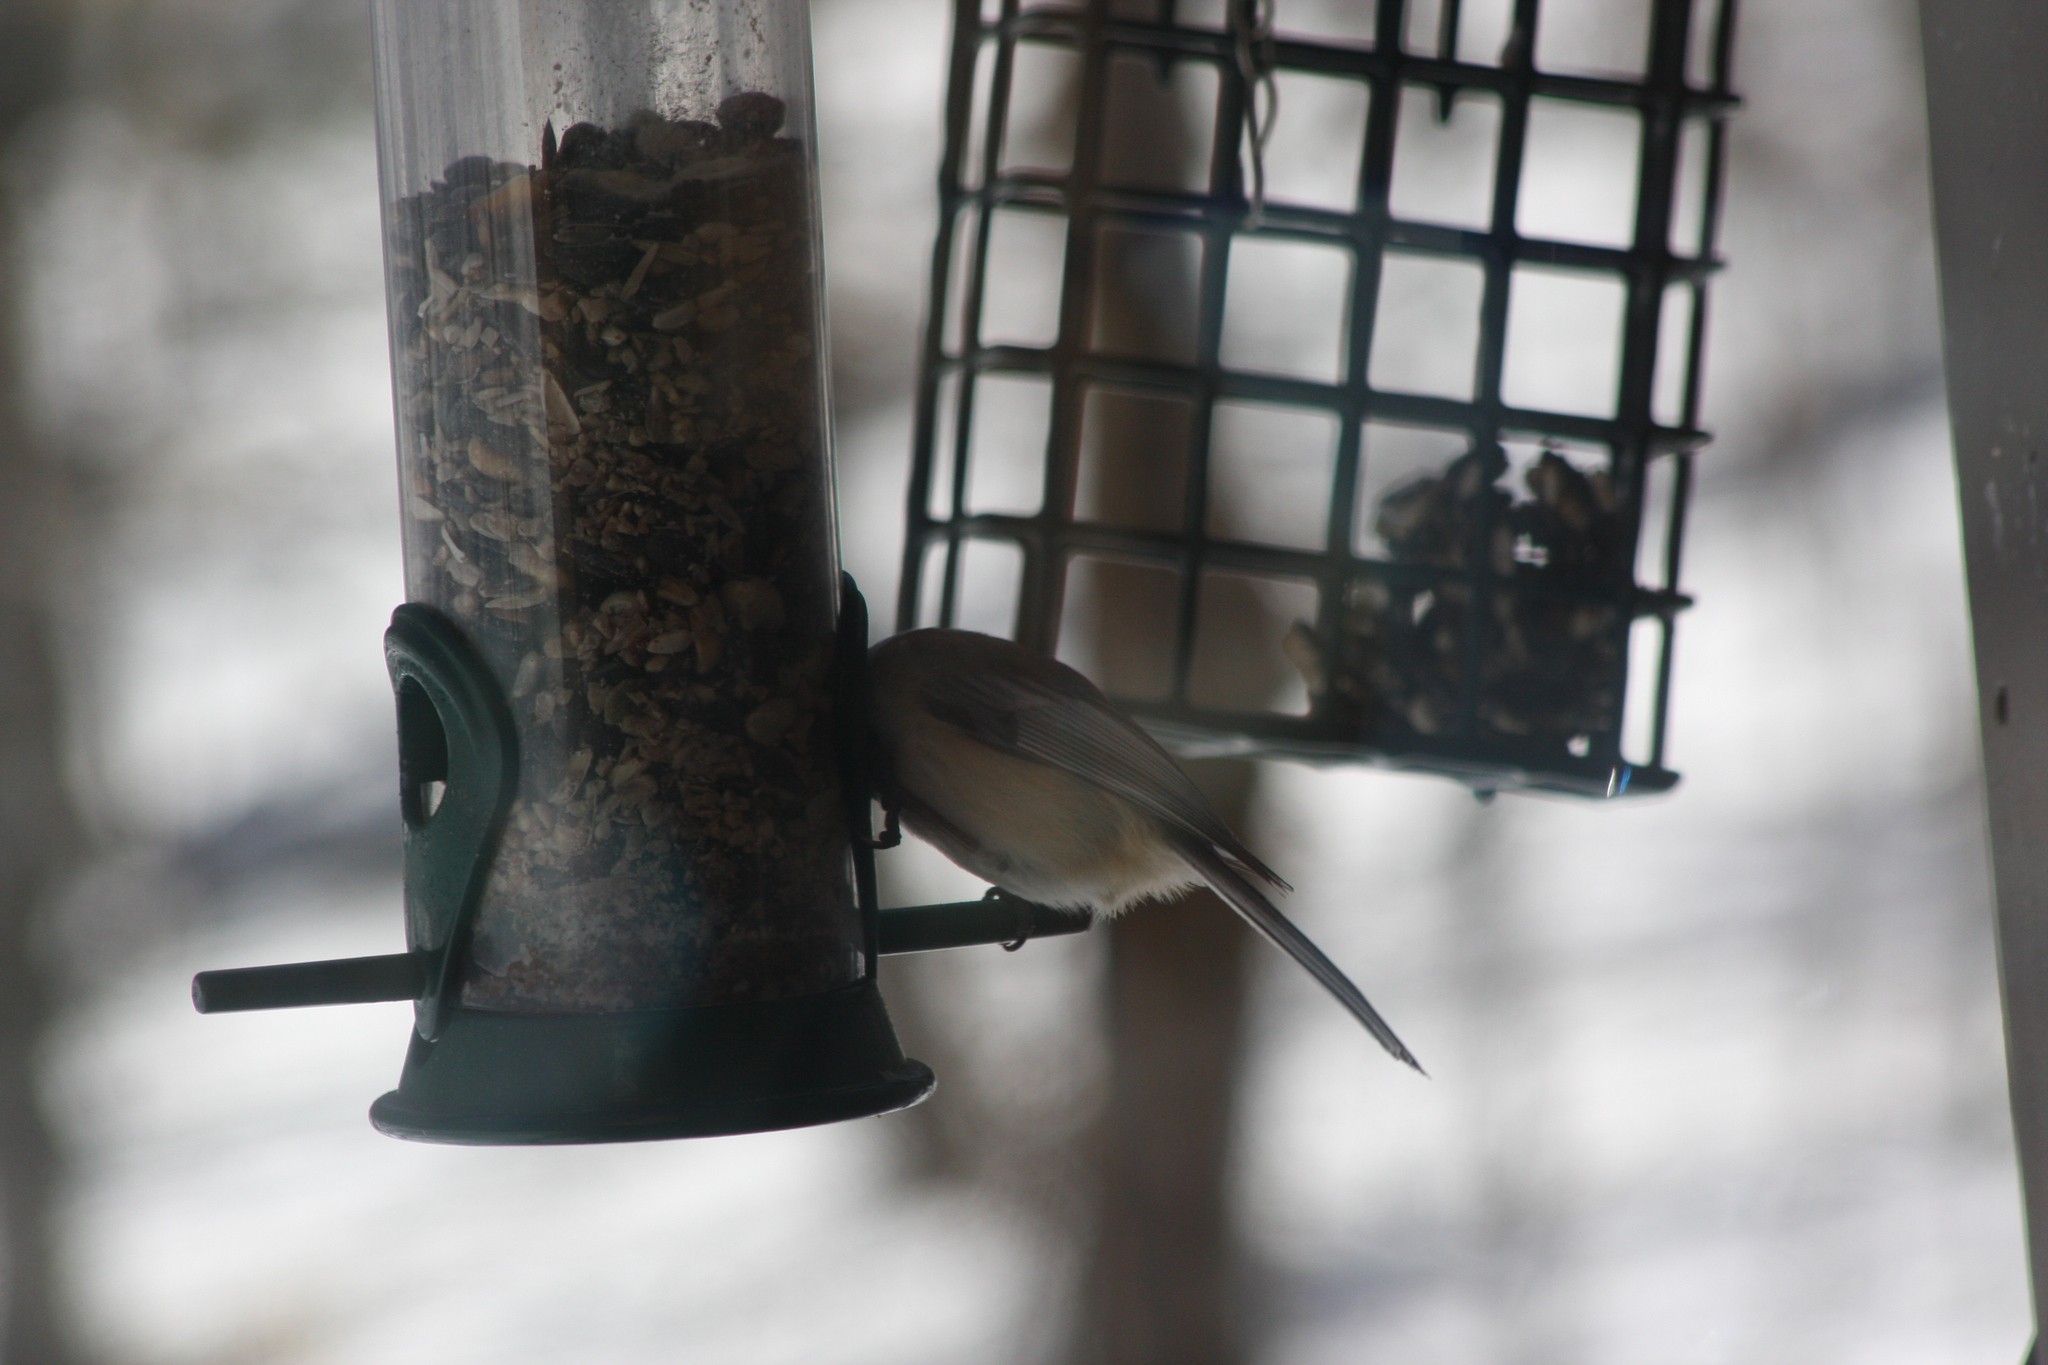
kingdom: Animalia
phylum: Chordata
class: Aves
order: Passeriformes
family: Paridae
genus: Poecile
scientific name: Poecile atricapillus
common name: Black-capped chickadee
